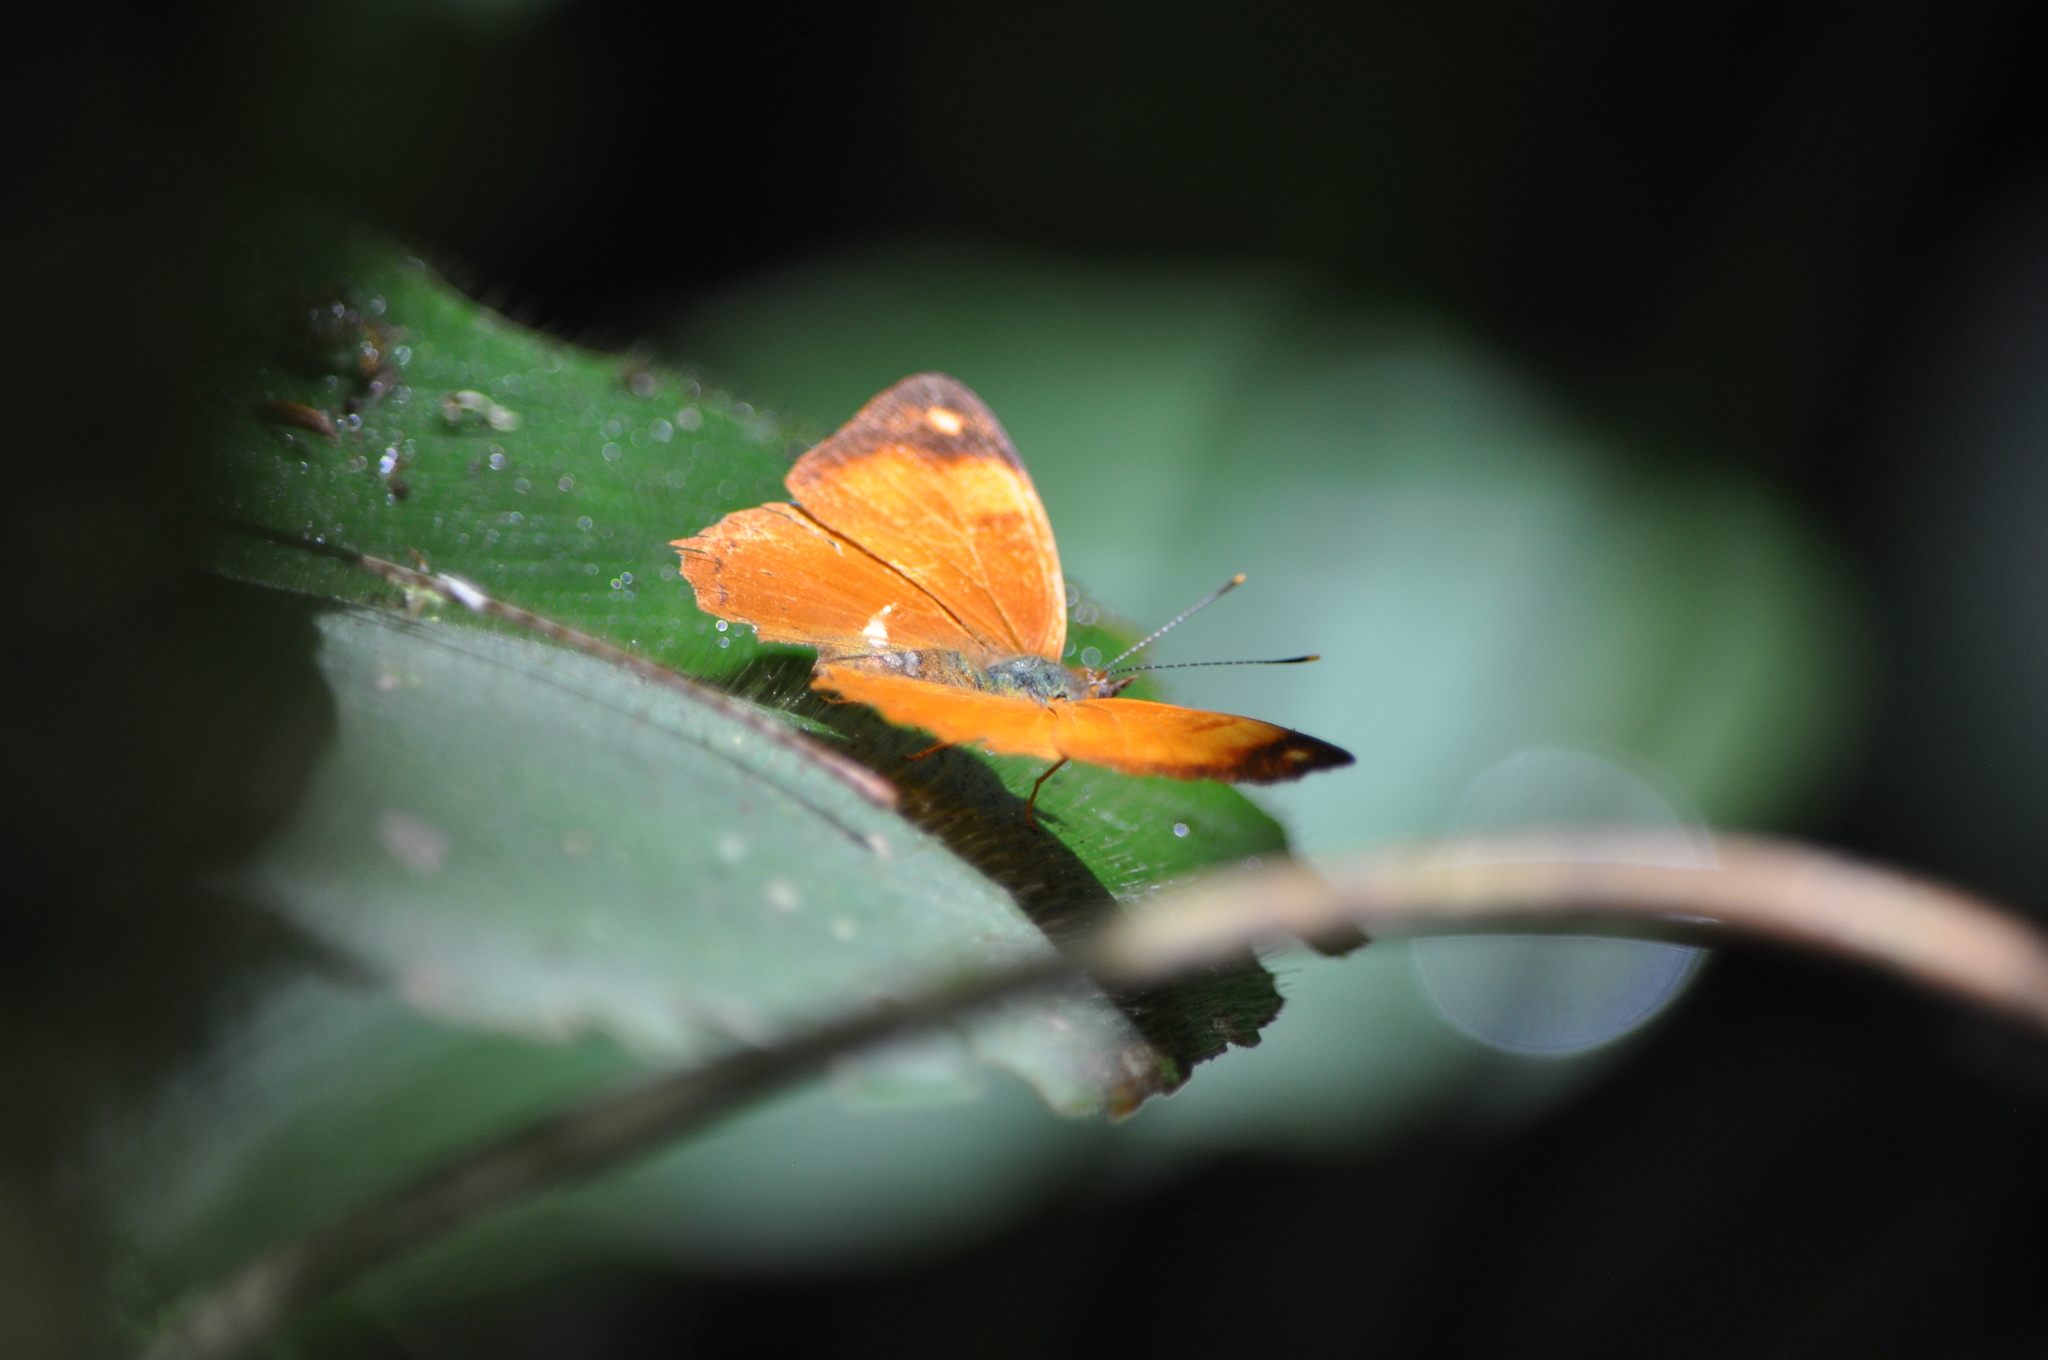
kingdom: Animalia
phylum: Arthropoda
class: Insecta
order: Lepidoptera
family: Nymphalidae
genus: Nica
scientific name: Nica flavilla
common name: Mandarin nica
